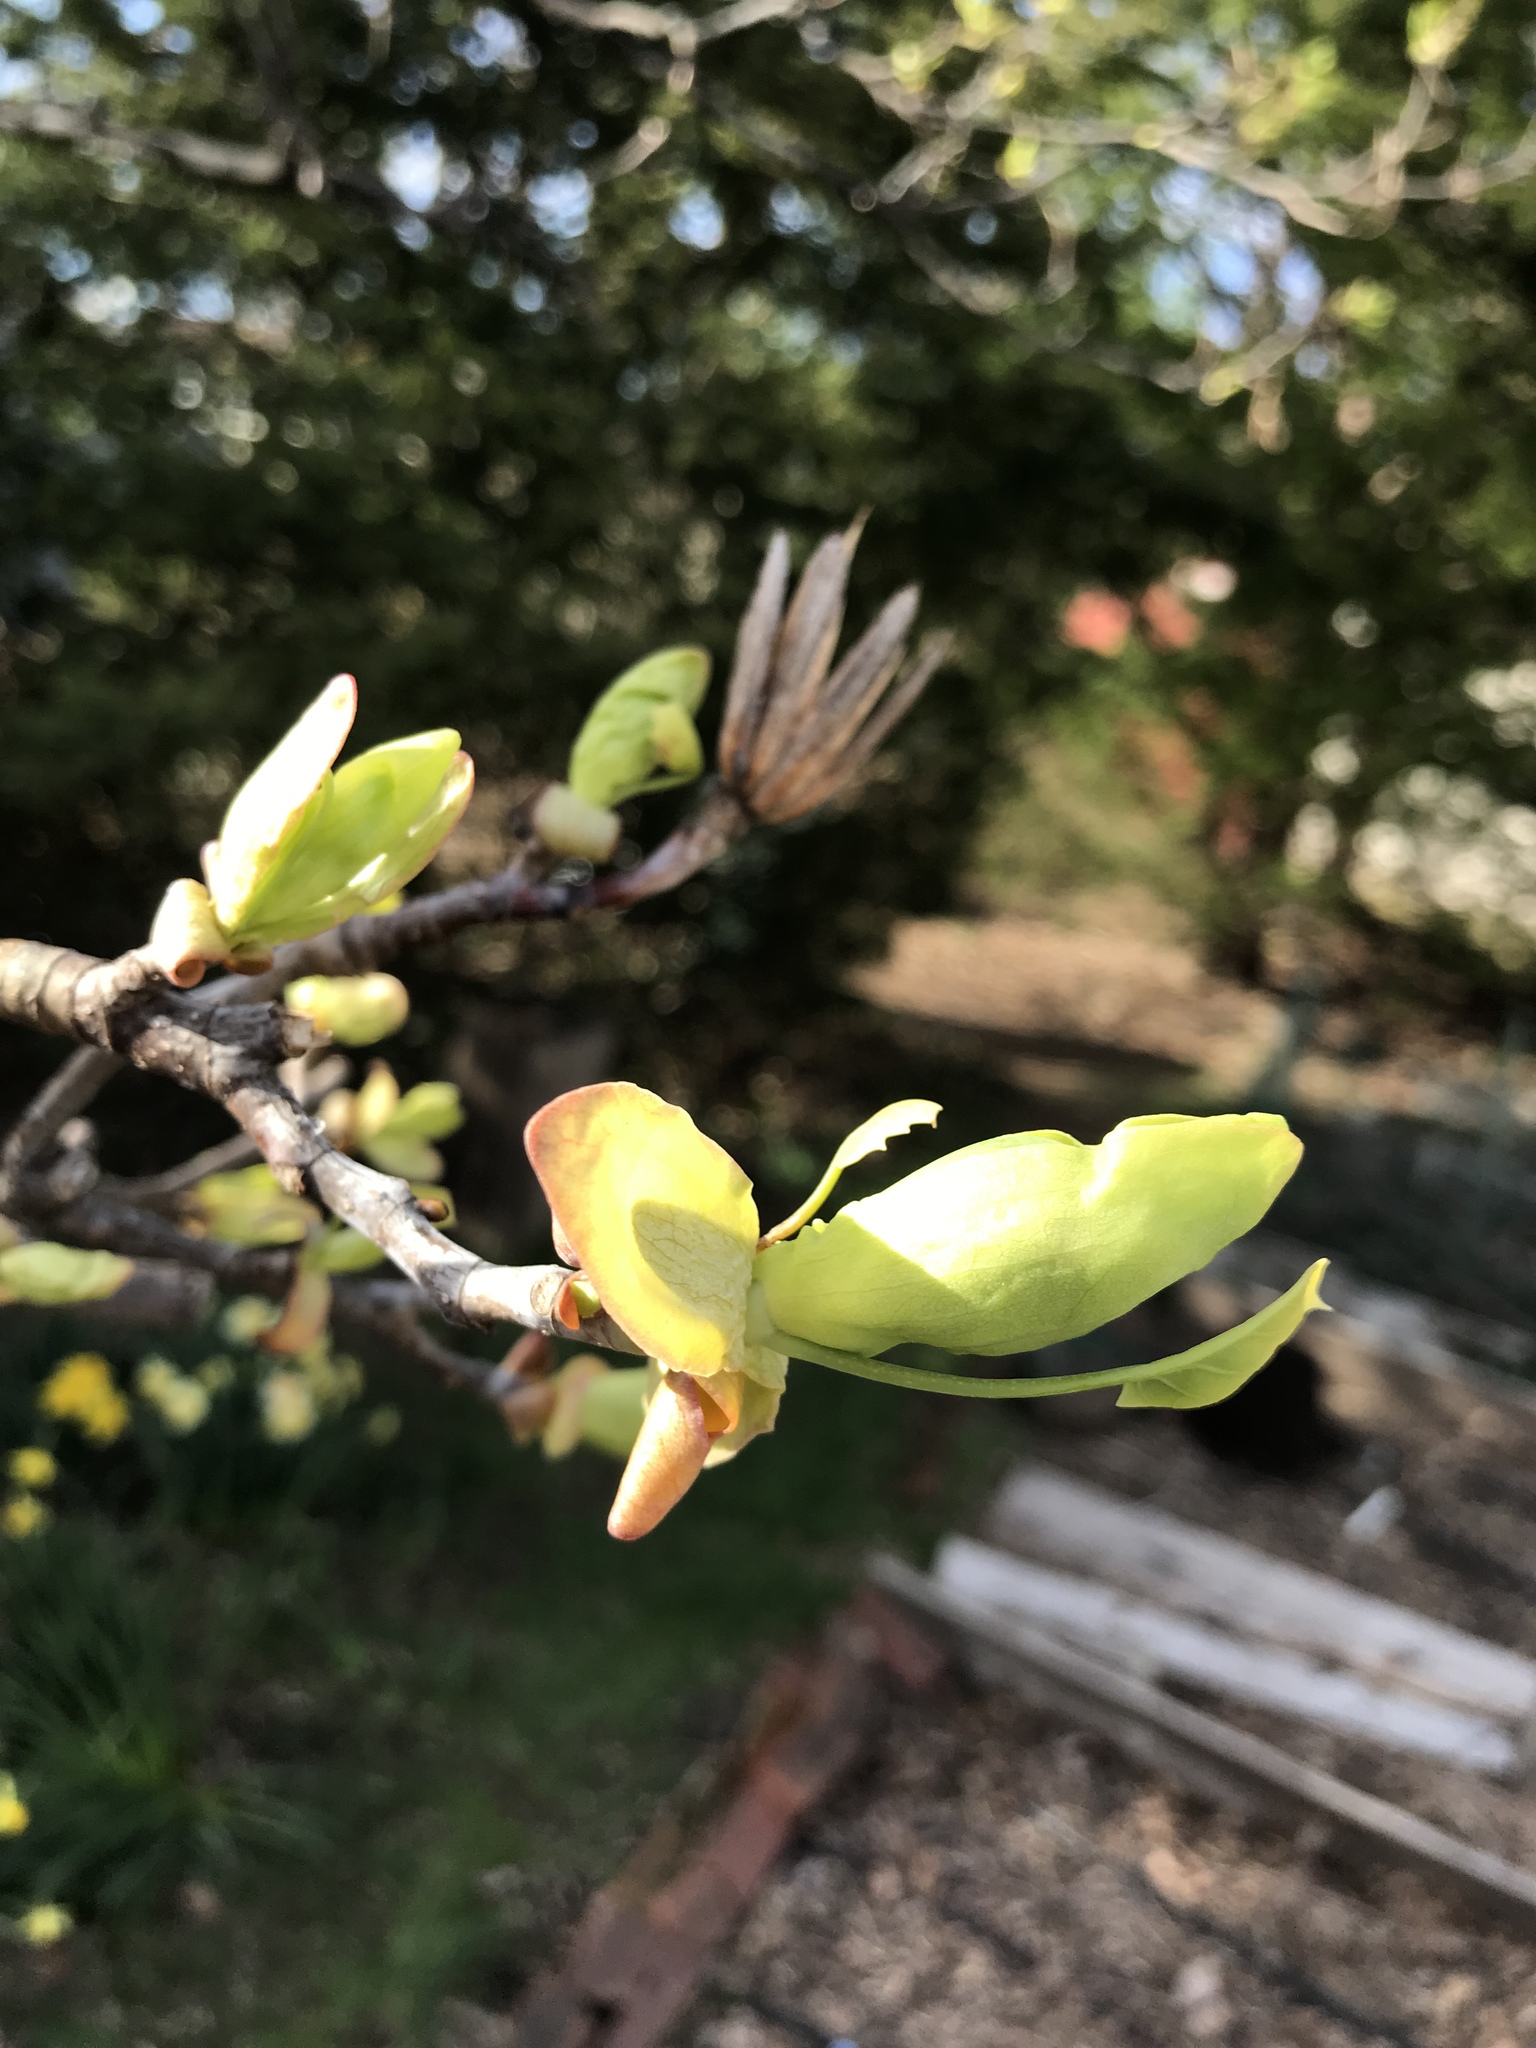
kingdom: Plantae
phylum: Tracheophyta
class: Magnoliopsida
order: Magnoliales
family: Magnoliaceae
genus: Liriodendron
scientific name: Liriodendron tulipifera
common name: Tulip tree
